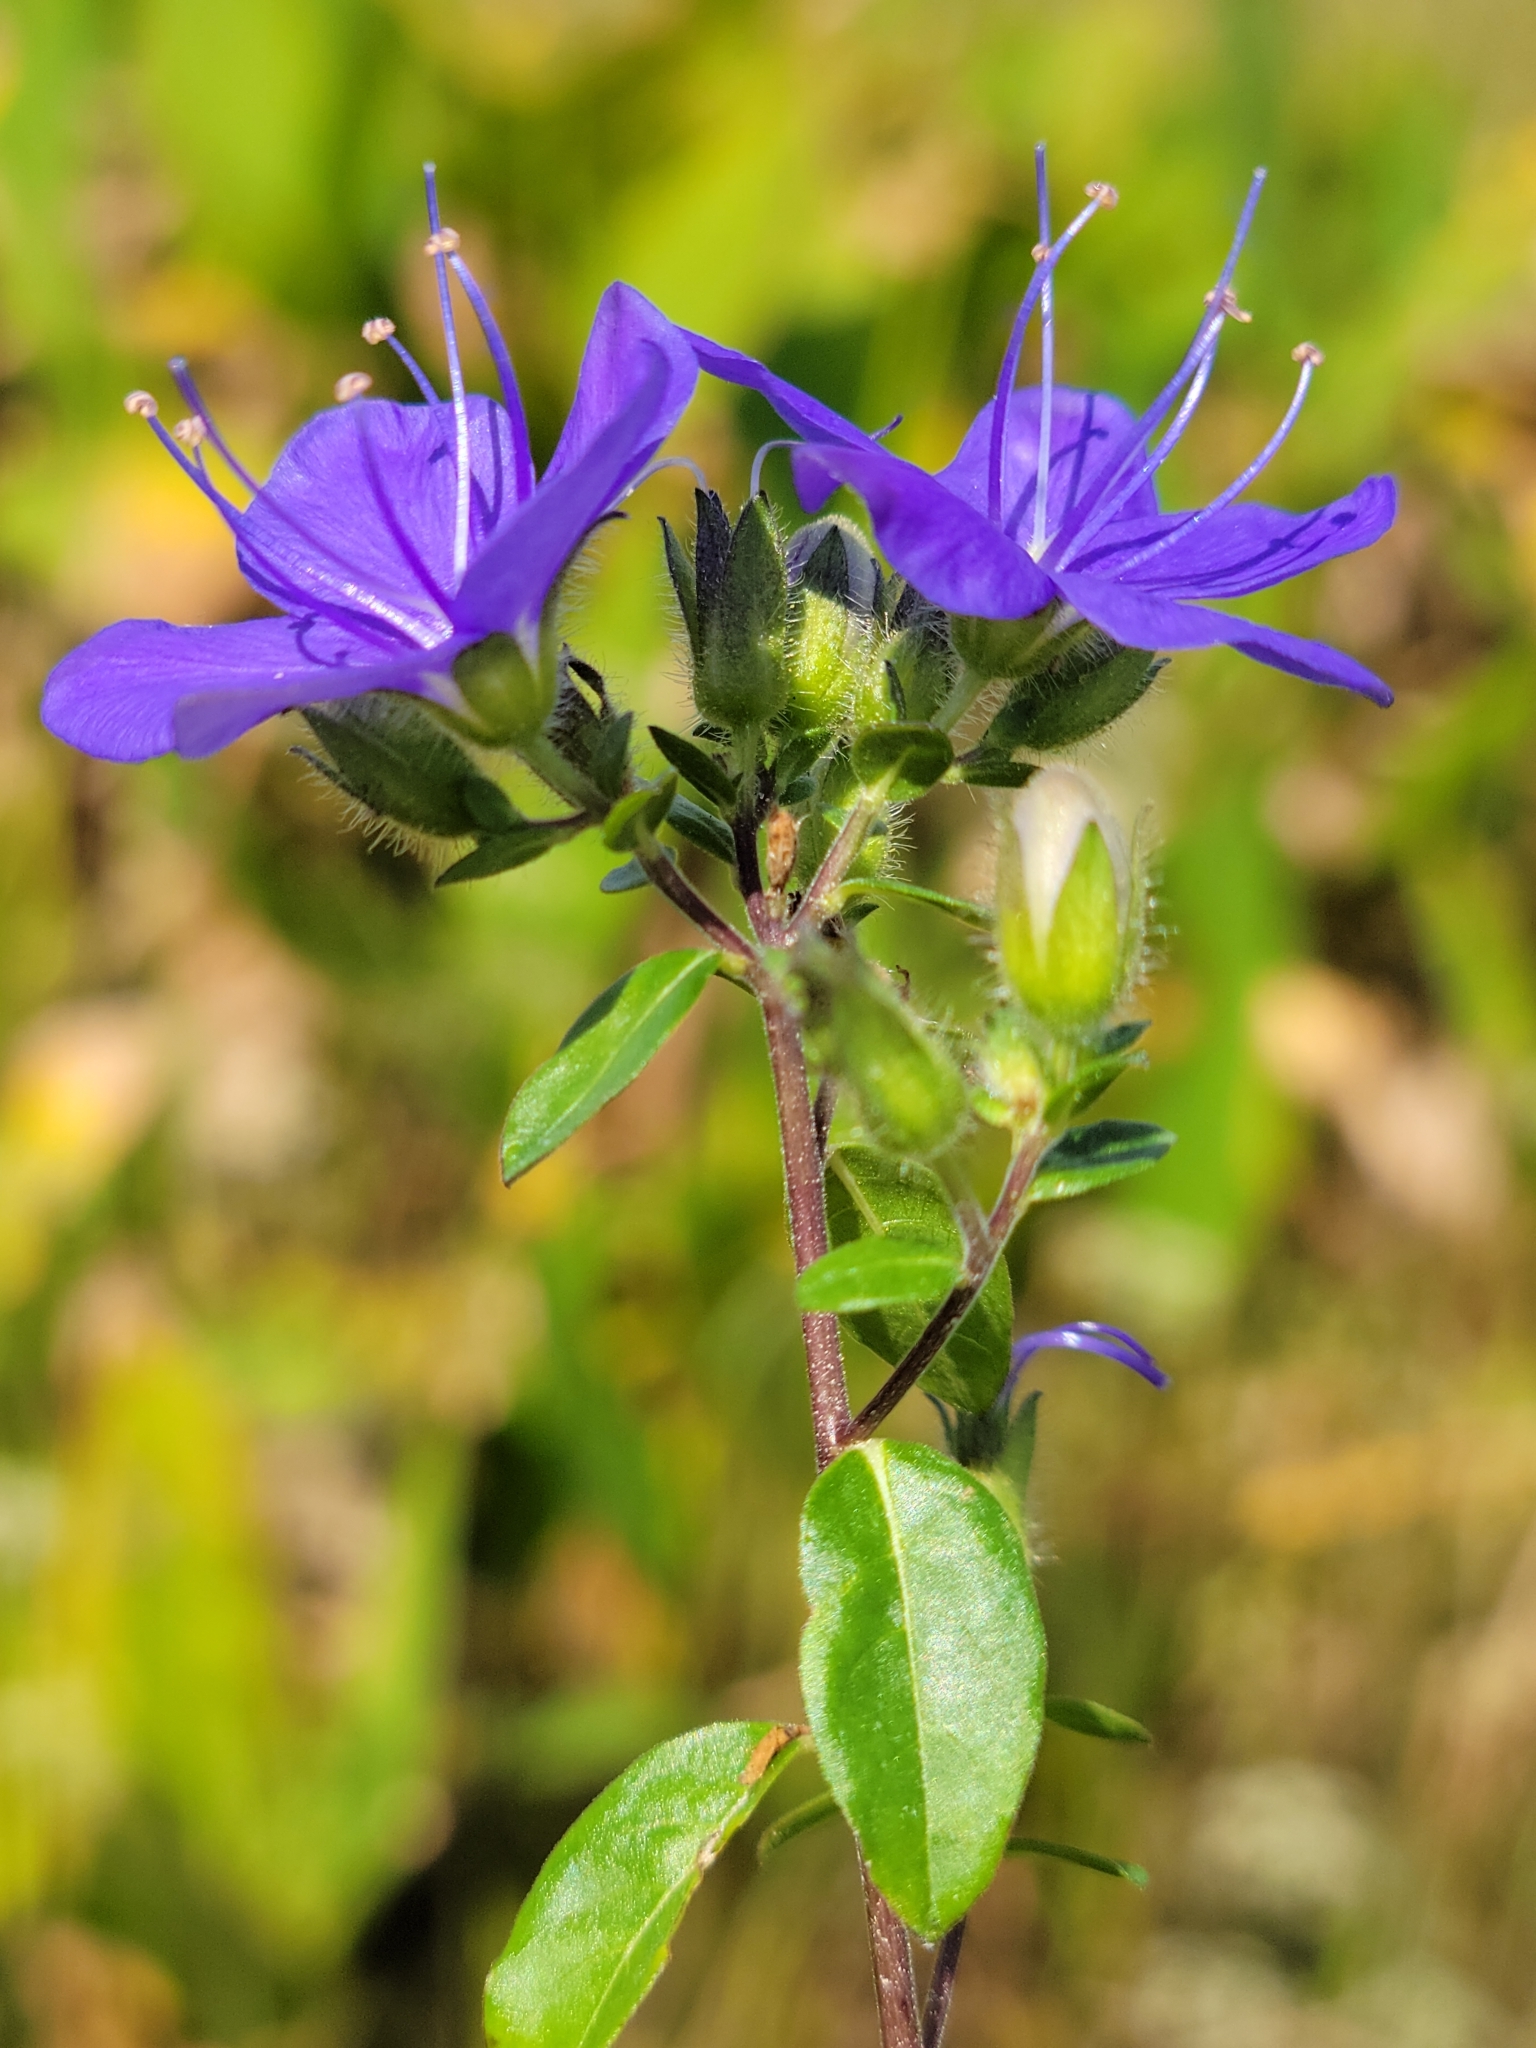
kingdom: Plantae
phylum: Tracheophyta
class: Magnoliopsida
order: Solanales
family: Hydroleaceae
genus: Hydrolea
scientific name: Hydrolea corymbosa
